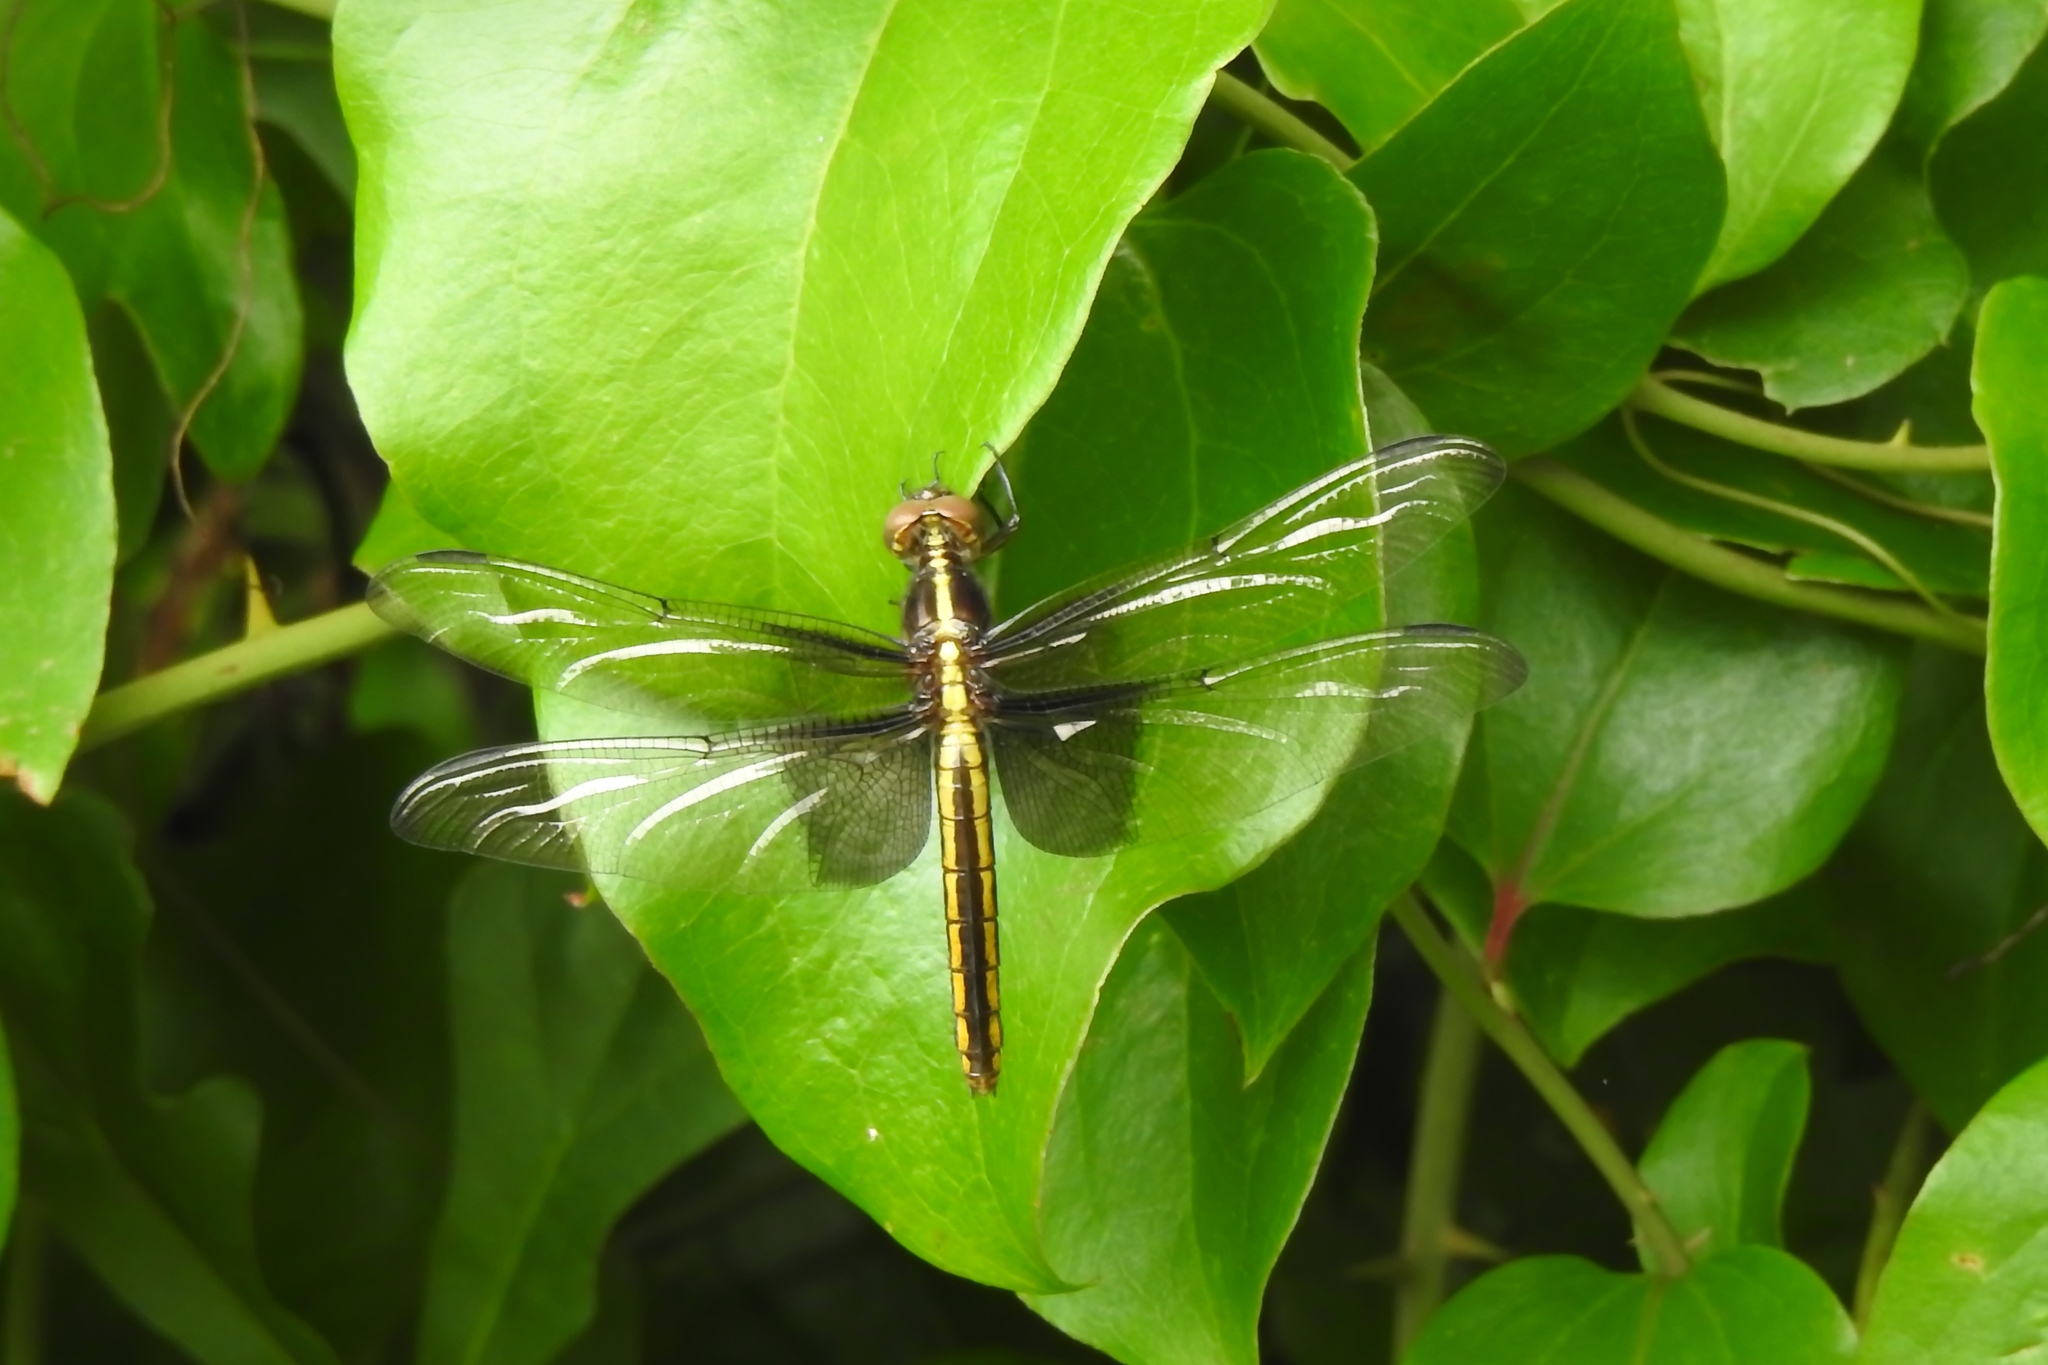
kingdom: Animalia
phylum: Arthropoda
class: Insecta
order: Odonata
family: Libellulidae
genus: Libellula
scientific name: Libellula luctuosa
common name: Widow skimmer
